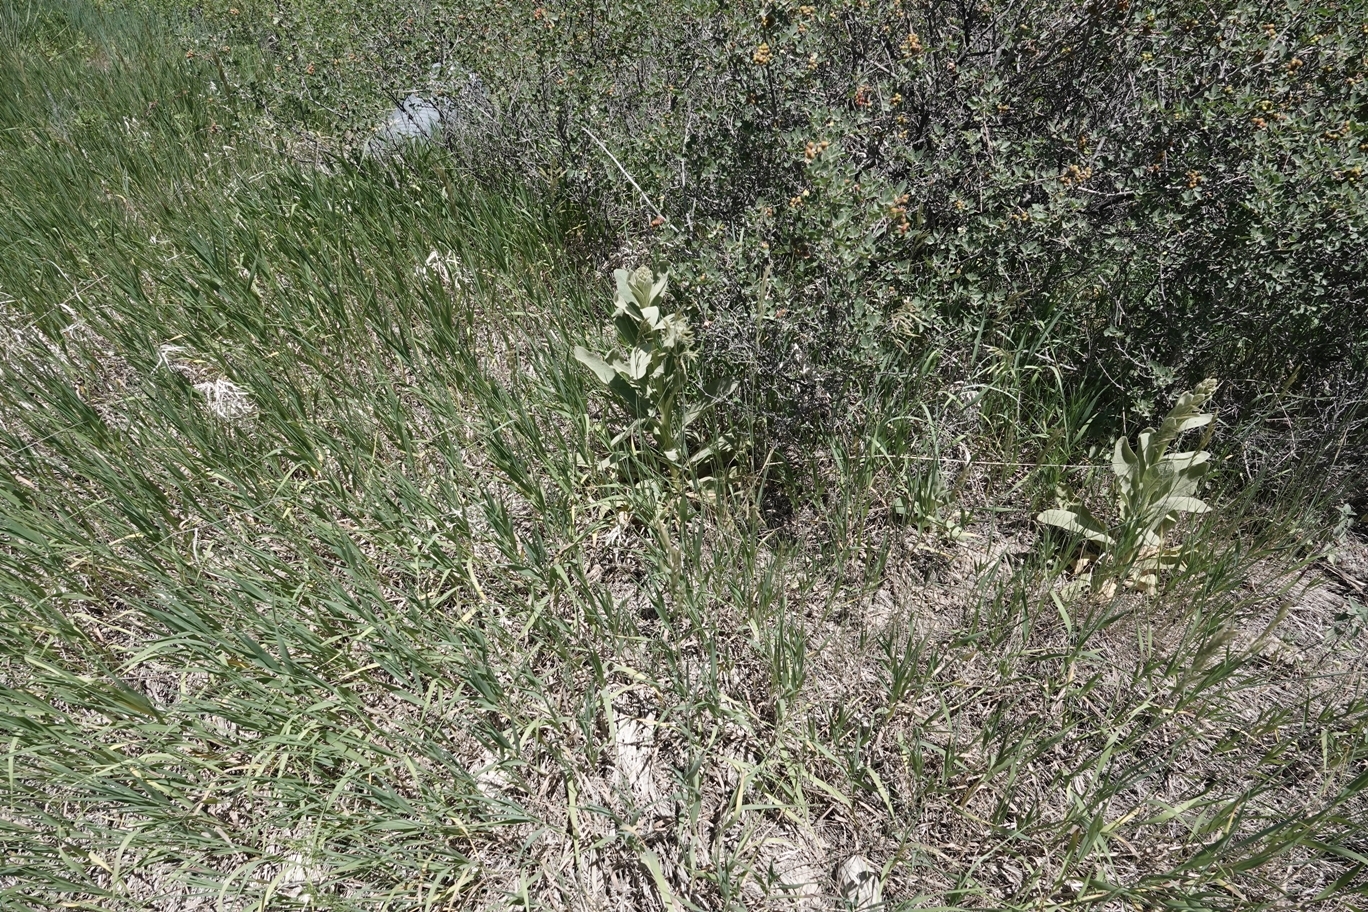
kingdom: Plantae
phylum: Tracheophyta
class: Magnoliopsida
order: Lamiales
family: Scrophulariaceae
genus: Verbascum
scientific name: Verbascum thapsus
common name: Common mullein
